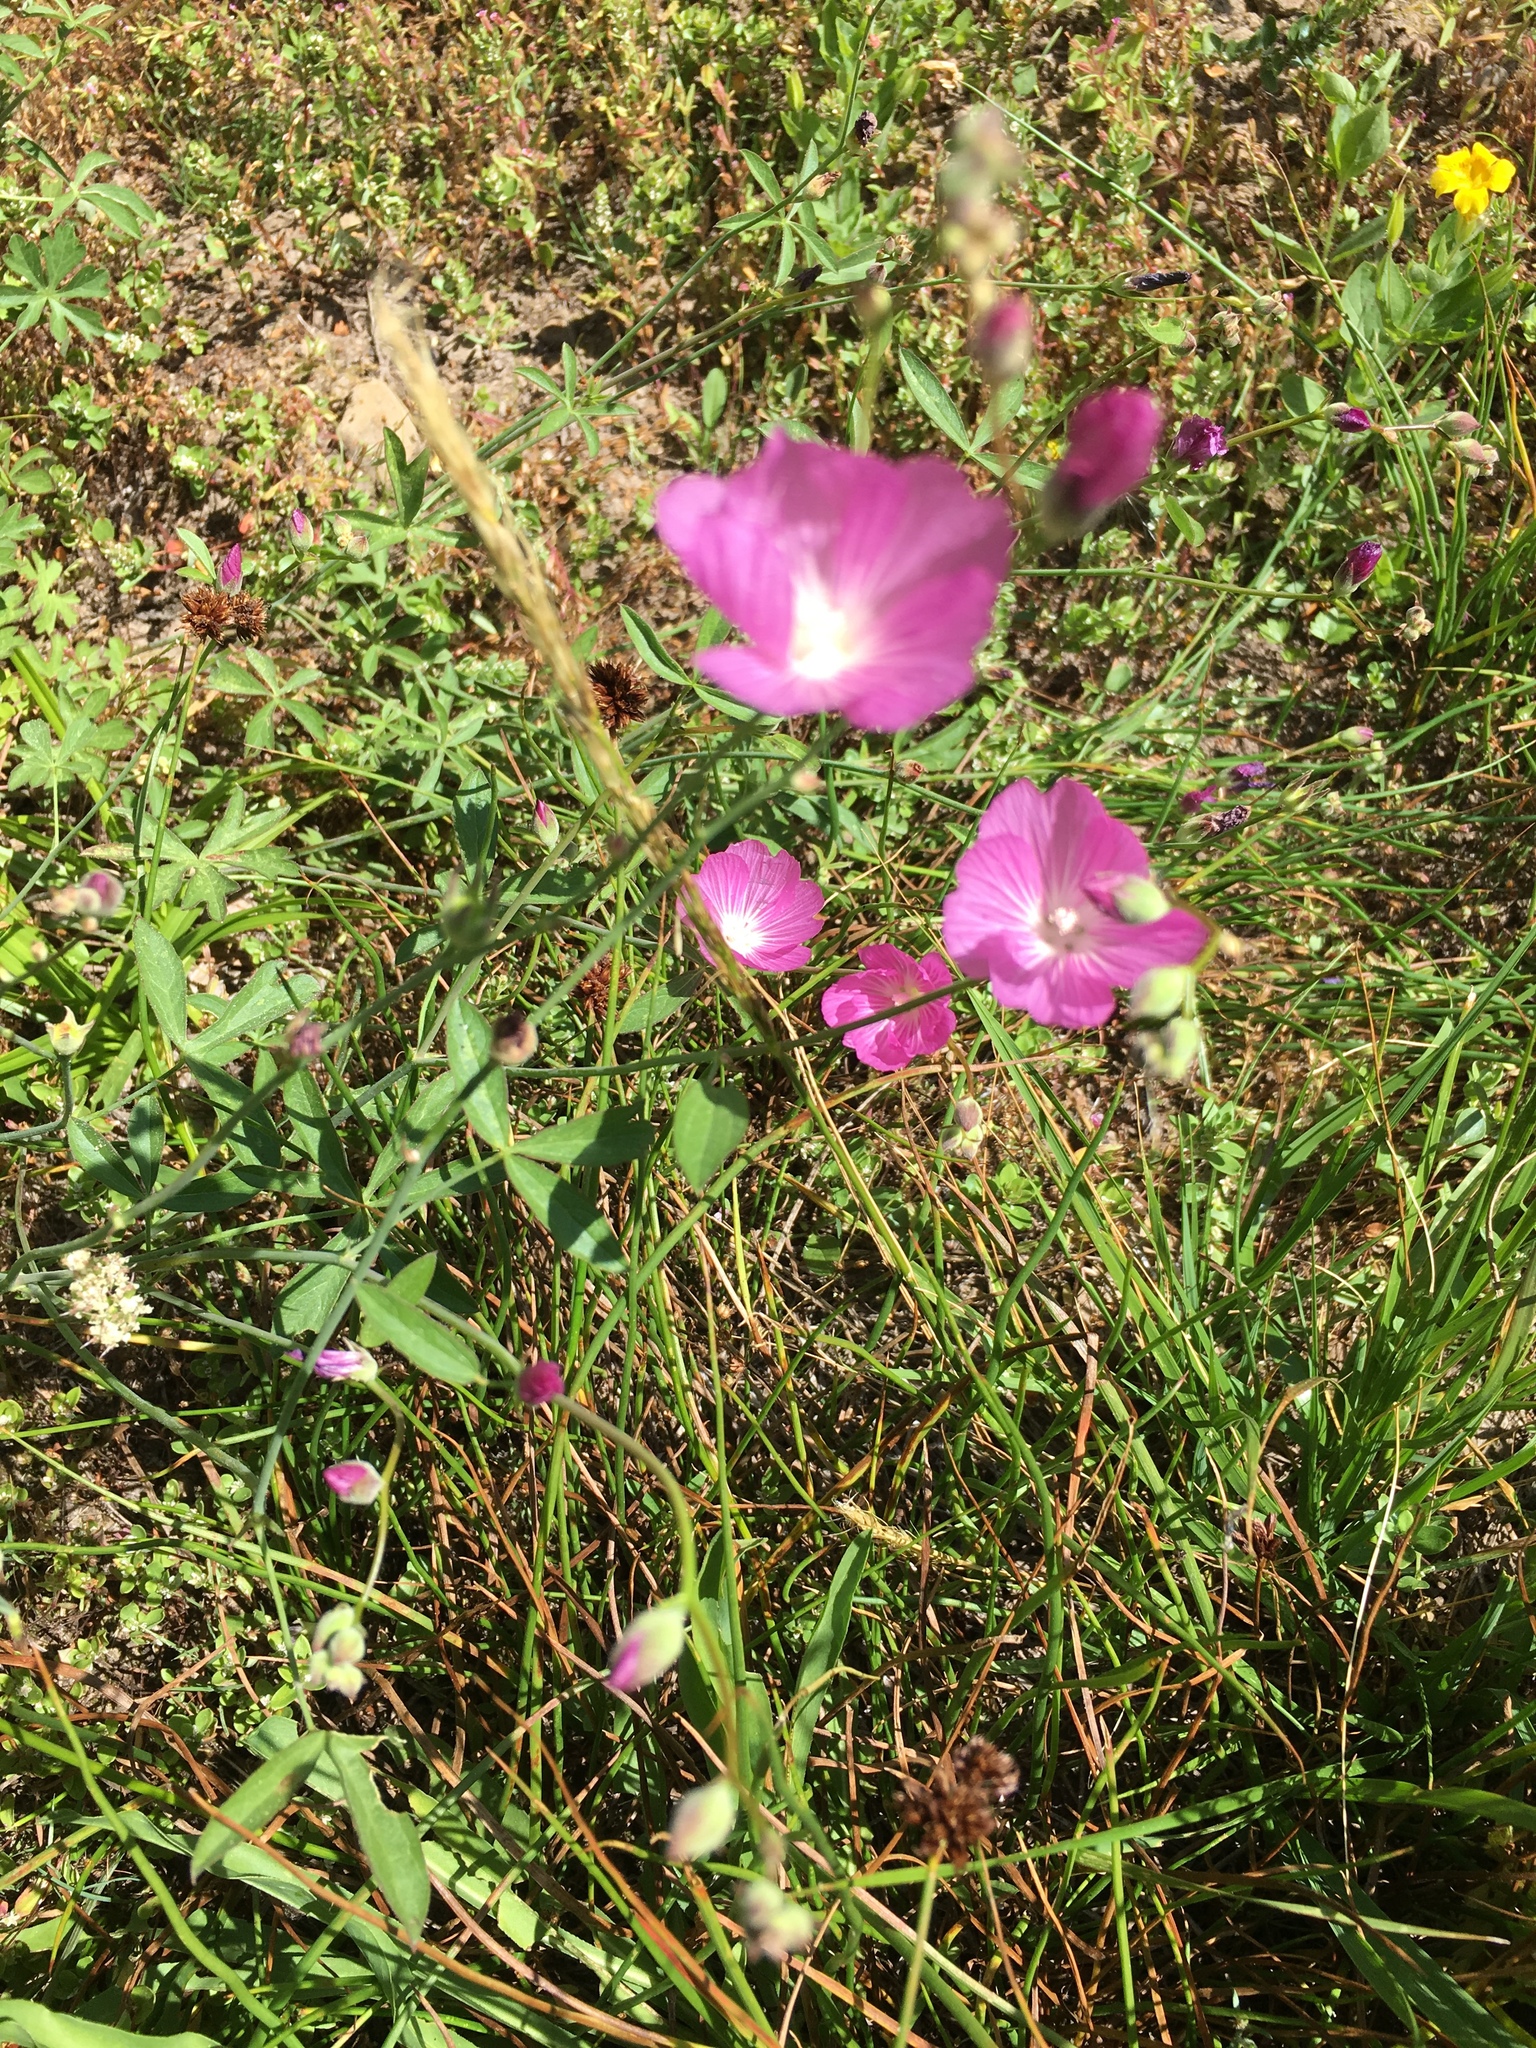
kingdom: Plantae
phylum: Tracheophyta
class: Magnoliopsida
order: Malvales
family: Malvaceae
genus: Sidalcea
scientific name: Sidalcea glaucescens
